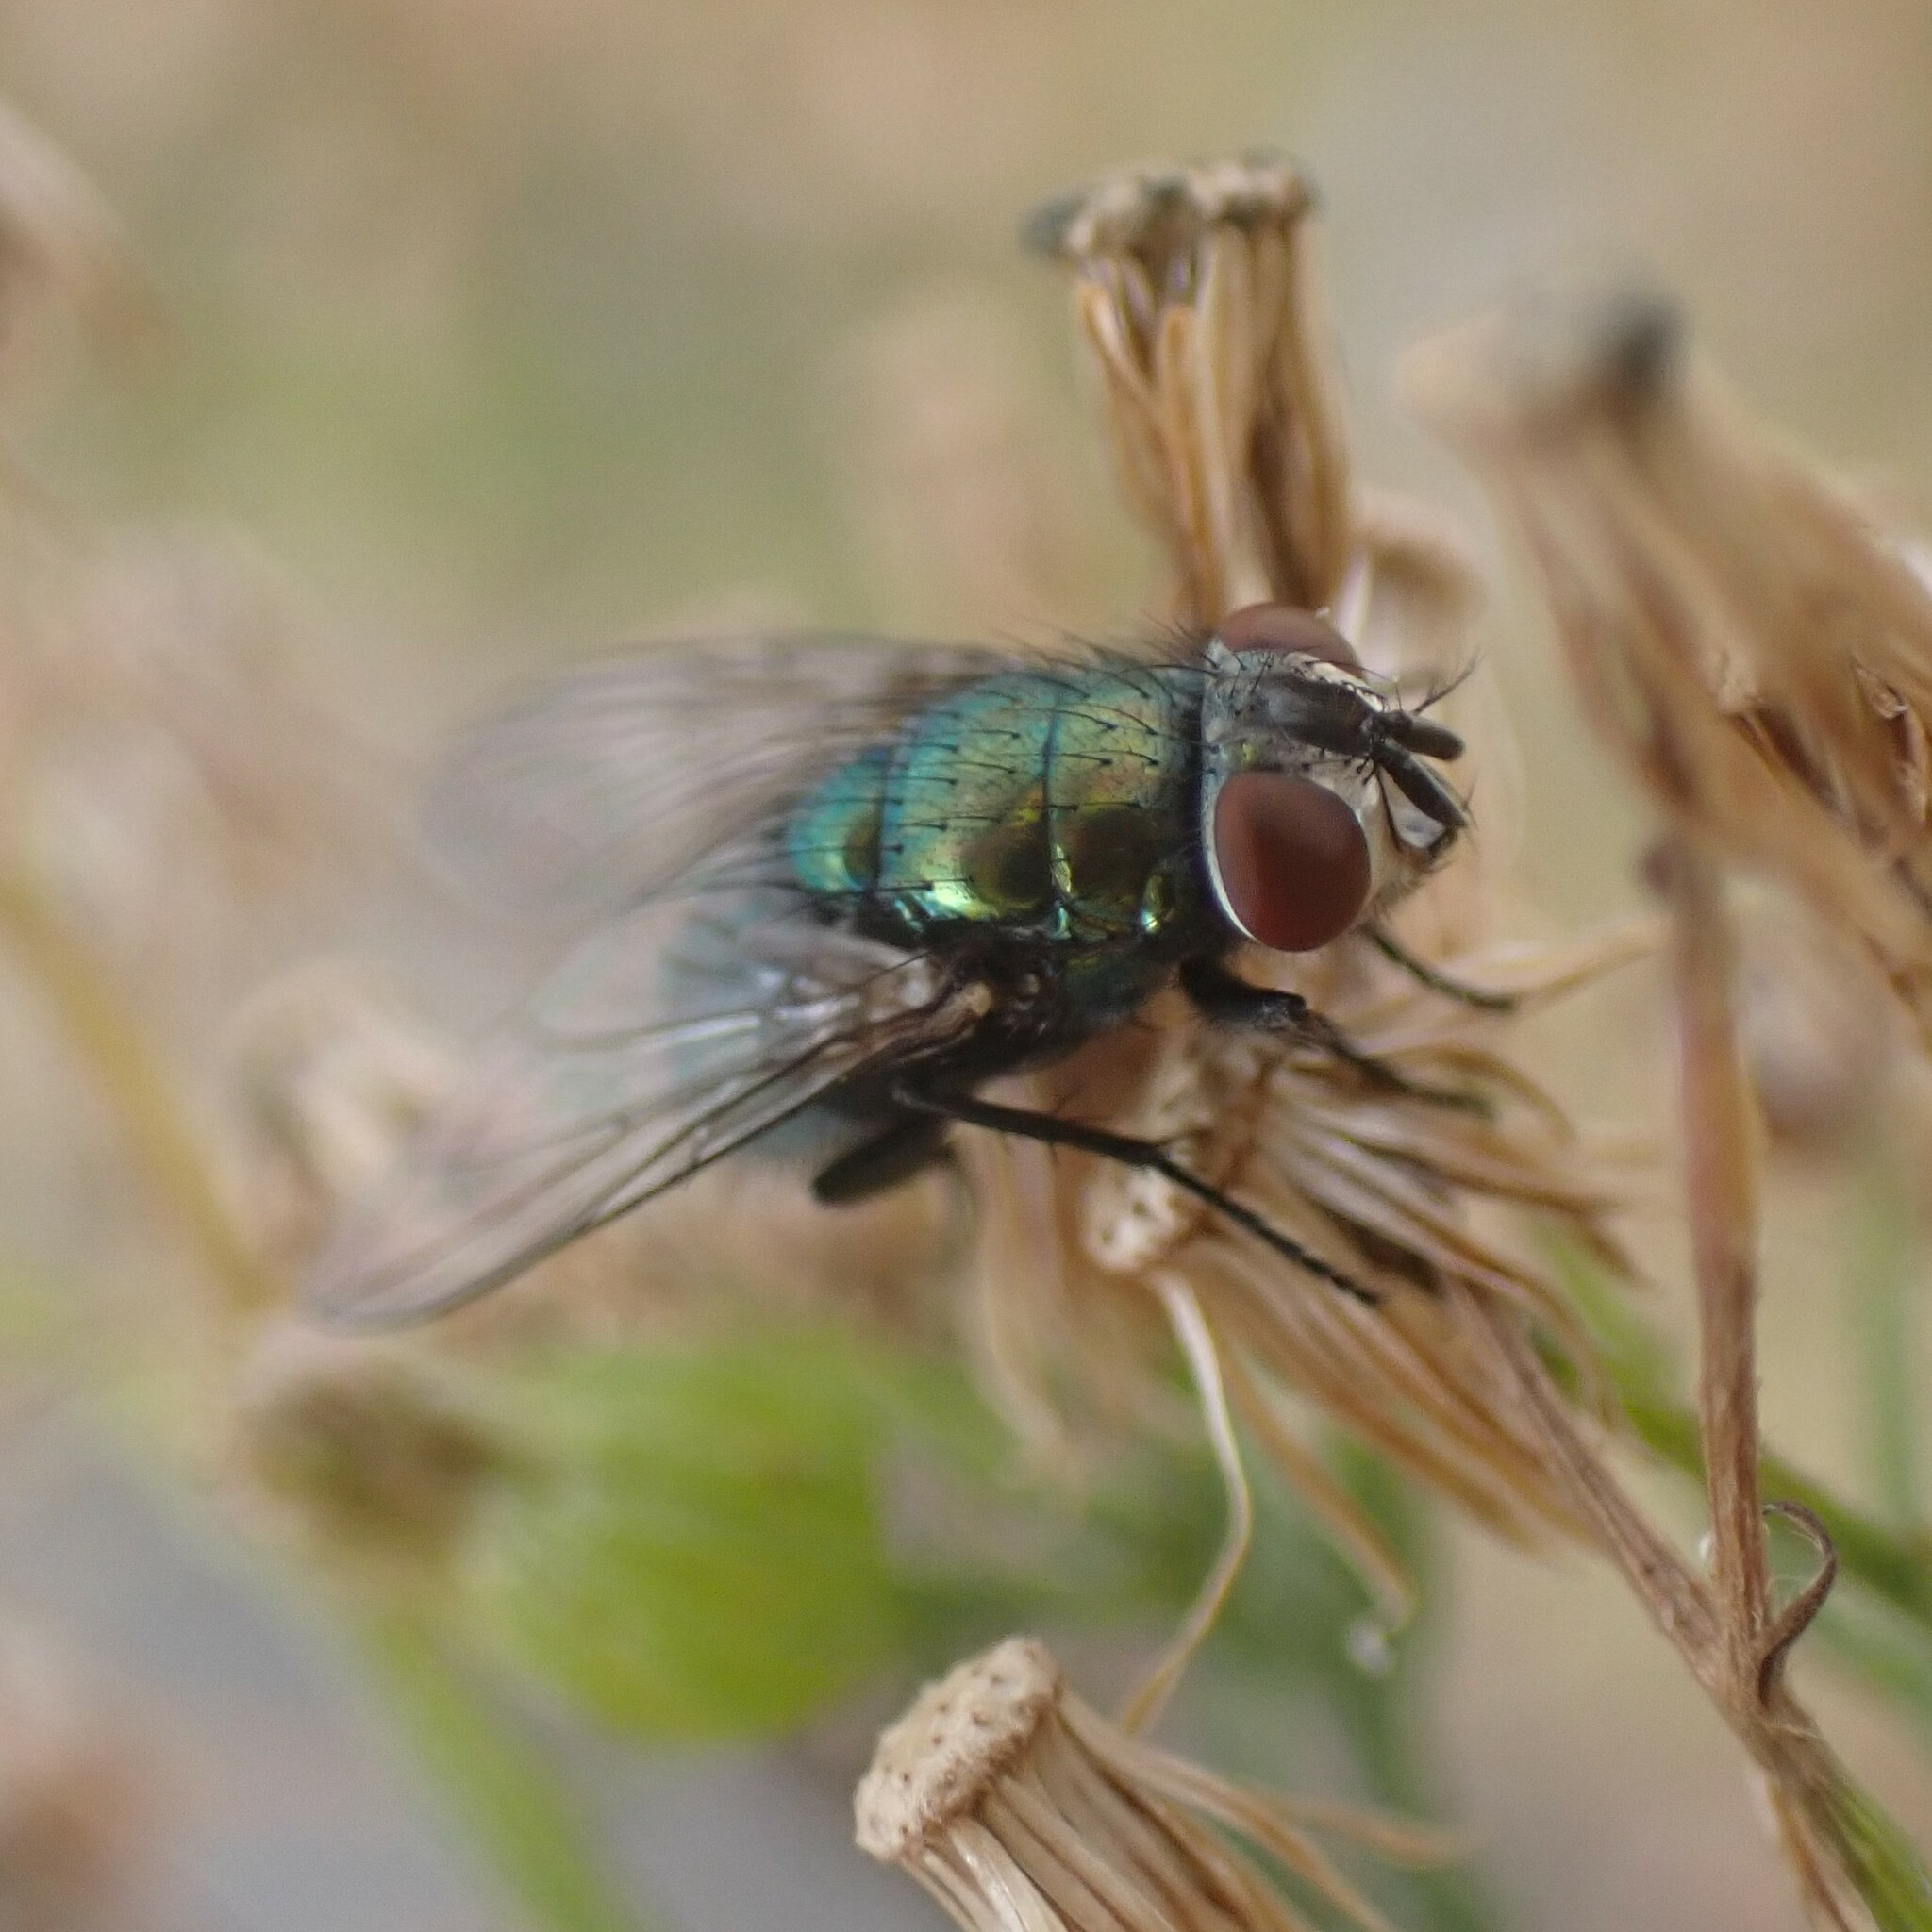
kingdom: Animalia
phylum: Arthropoda
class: Insecta
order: Diptera
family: Calliphoridae
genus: Lucilia
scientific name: Lucilia sericata
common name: Blow fly
